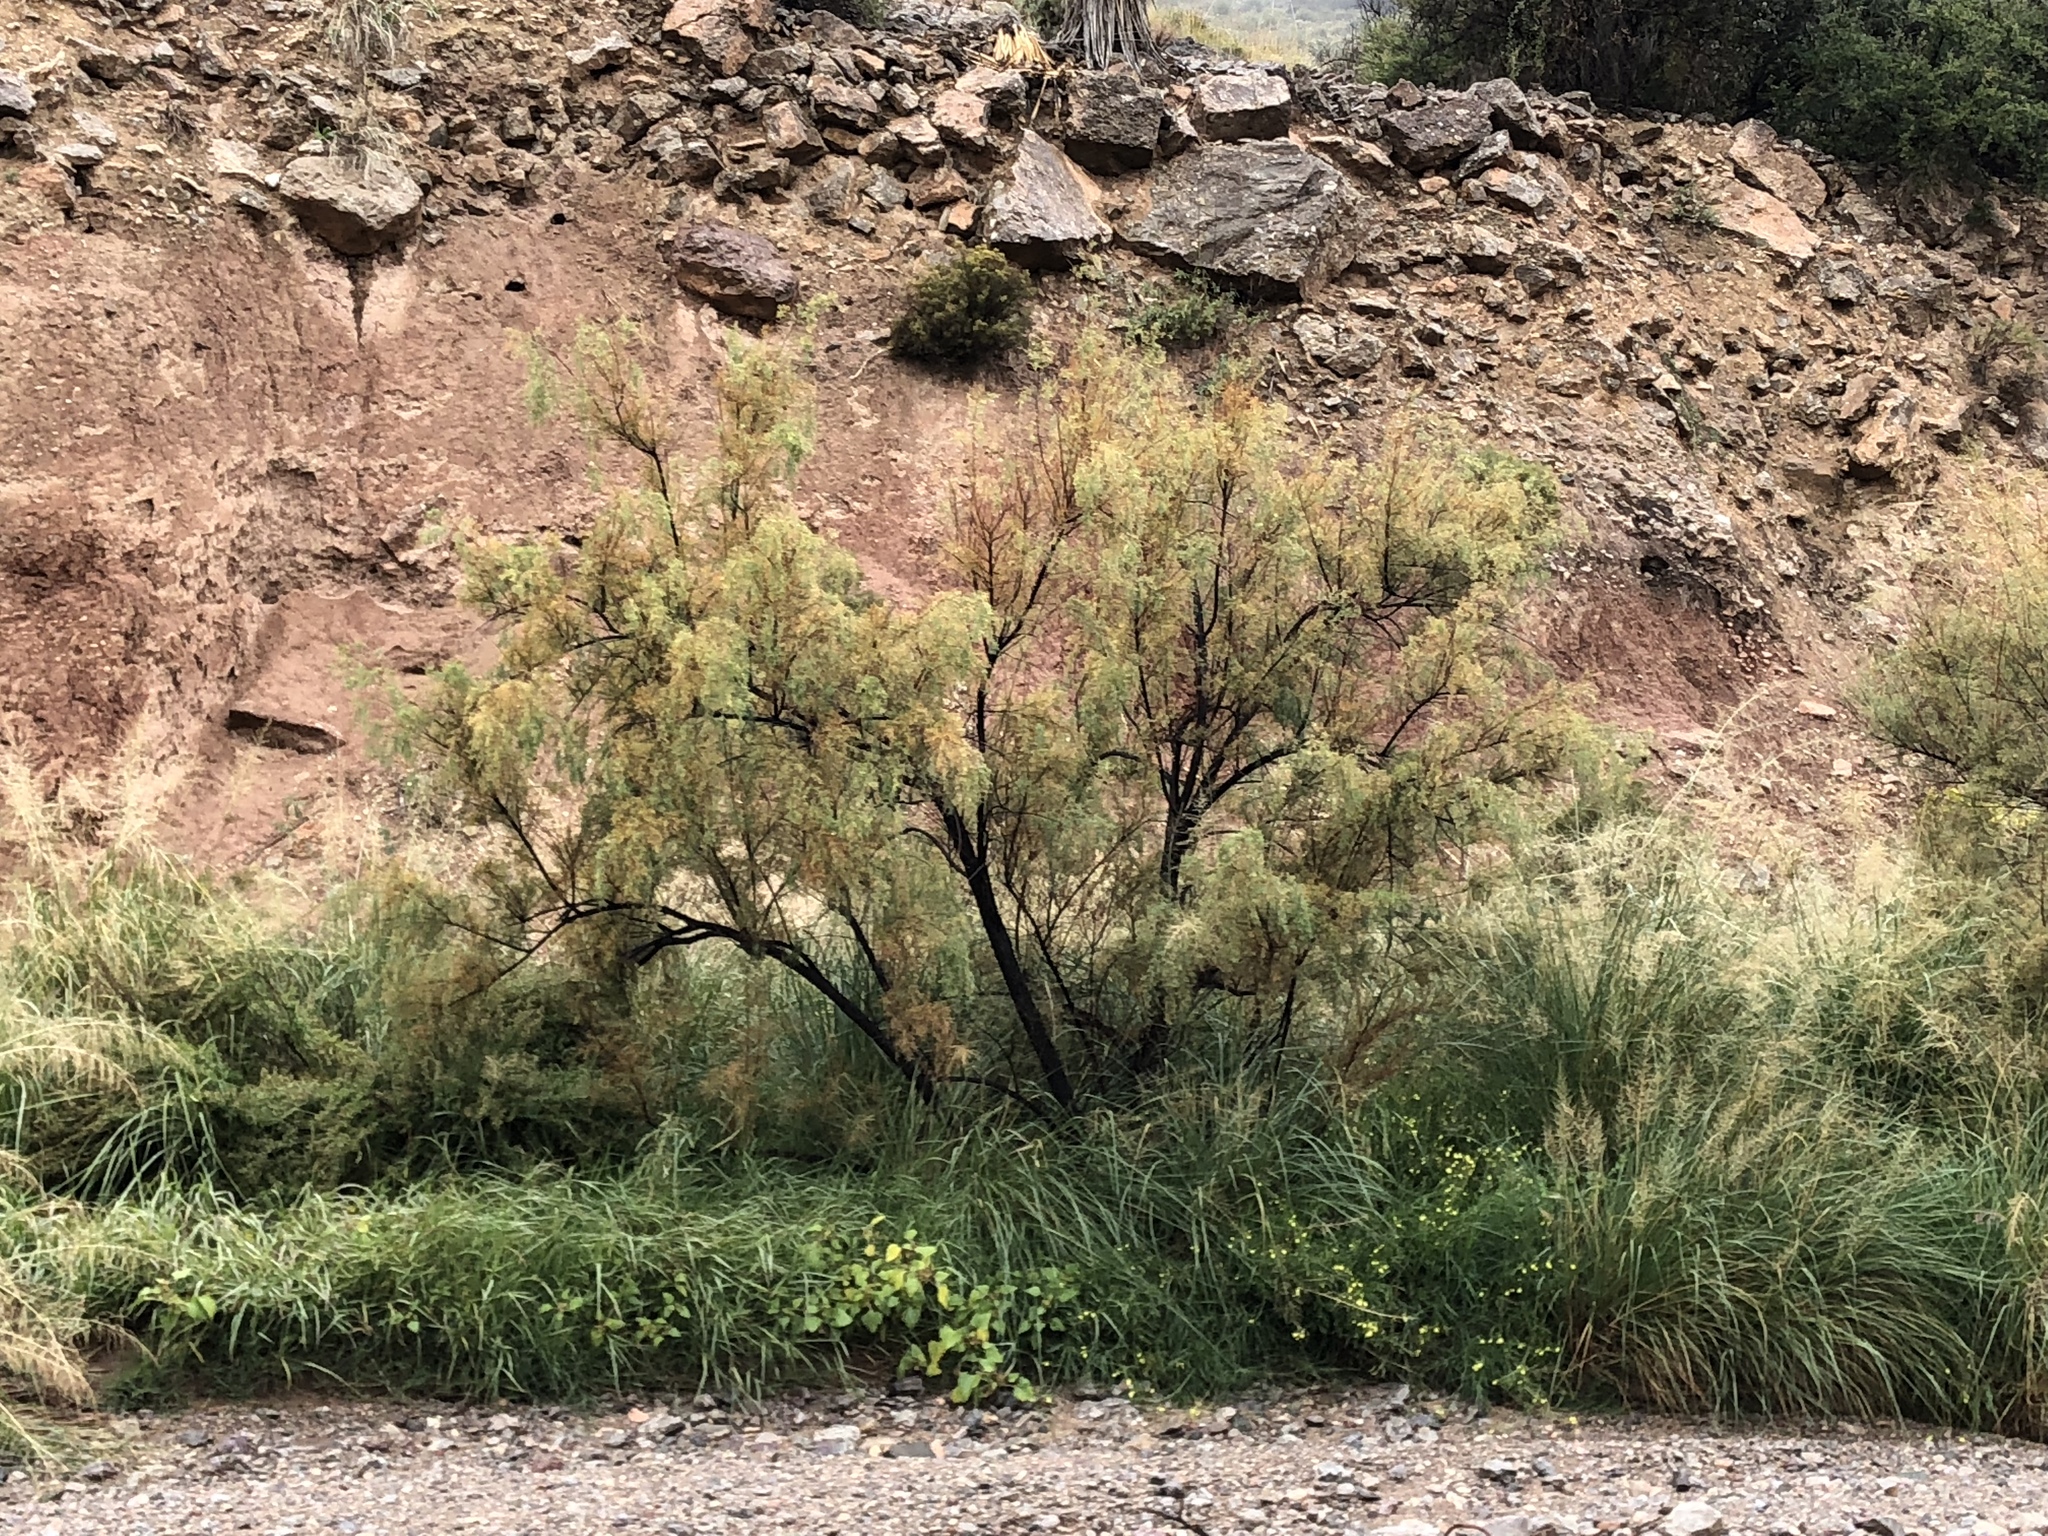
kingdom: Plantae
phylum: Tracheophyta
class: Magnoliopsida
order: Caryophyllales
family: Tamaricaceae
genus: Tamarix
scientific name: Tamarix chinensis
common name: Chinese tamarisk
